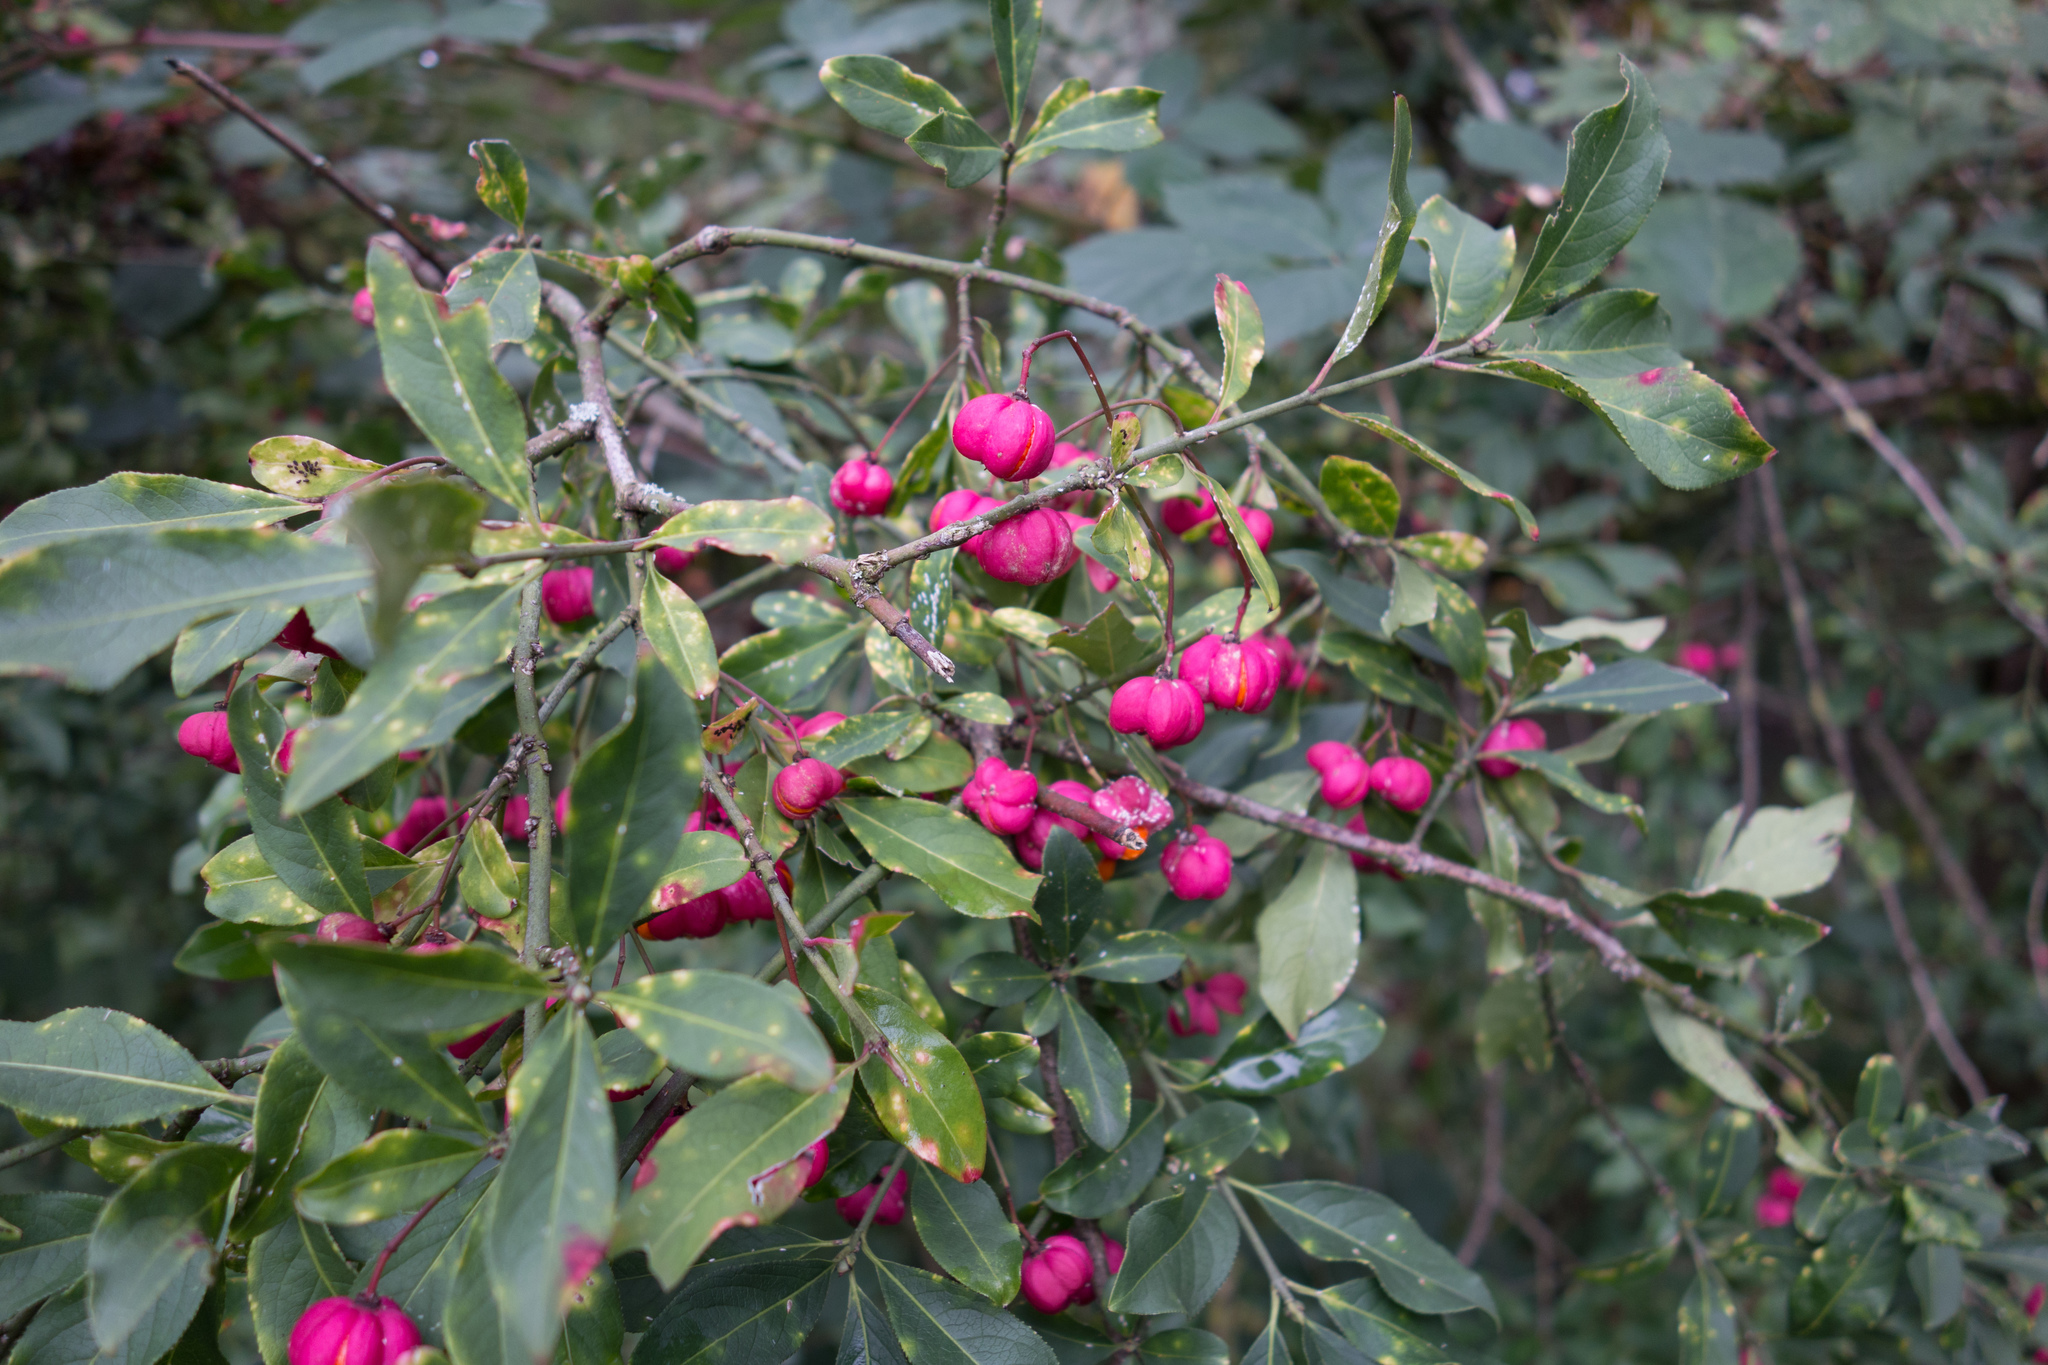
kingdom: Plantae
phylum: Tracheophyta
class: Magnoliopsida
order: Celastrales
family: Celastraceae
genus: Euonymus
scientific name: Euonymus europaeus
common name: Spindle
